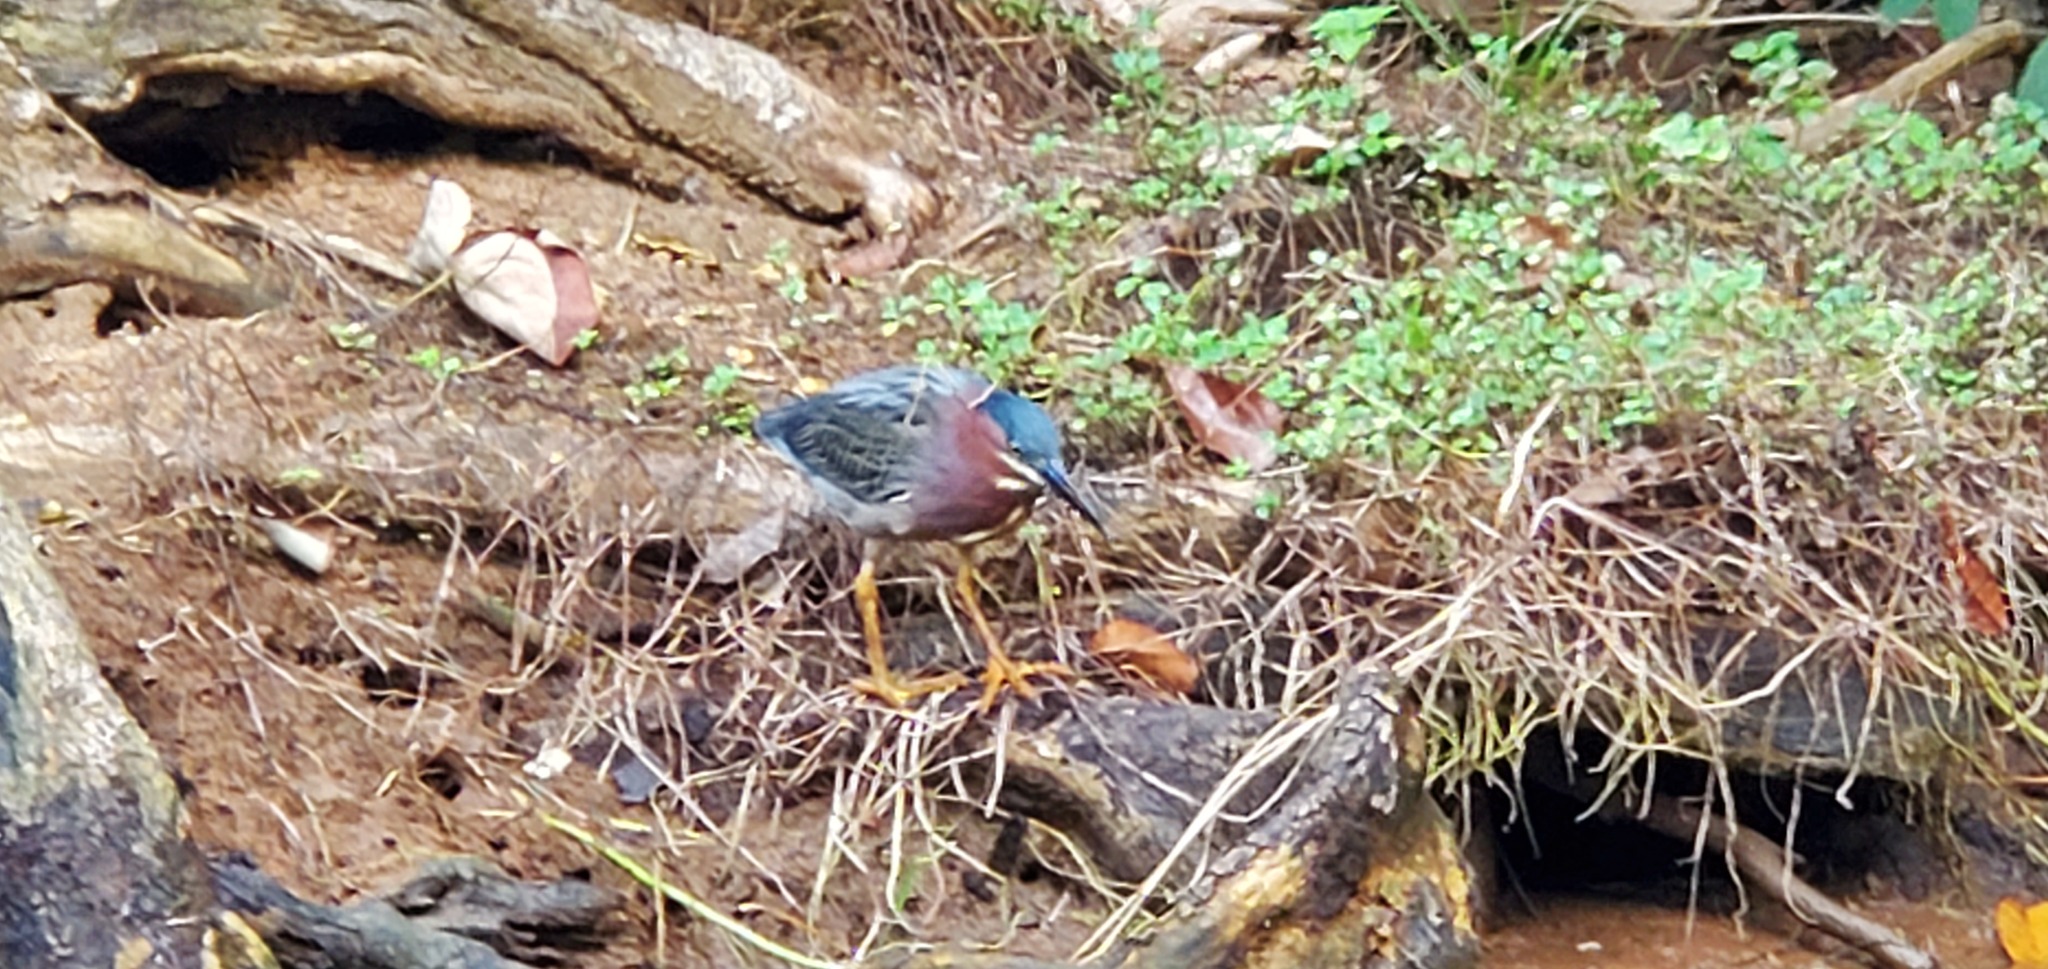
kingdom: Animalia
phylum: Chordata
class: Aves
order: Pelecaniformes
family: Ardeidae
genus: Butorides
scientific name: Butorides virescens
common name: Green heron
